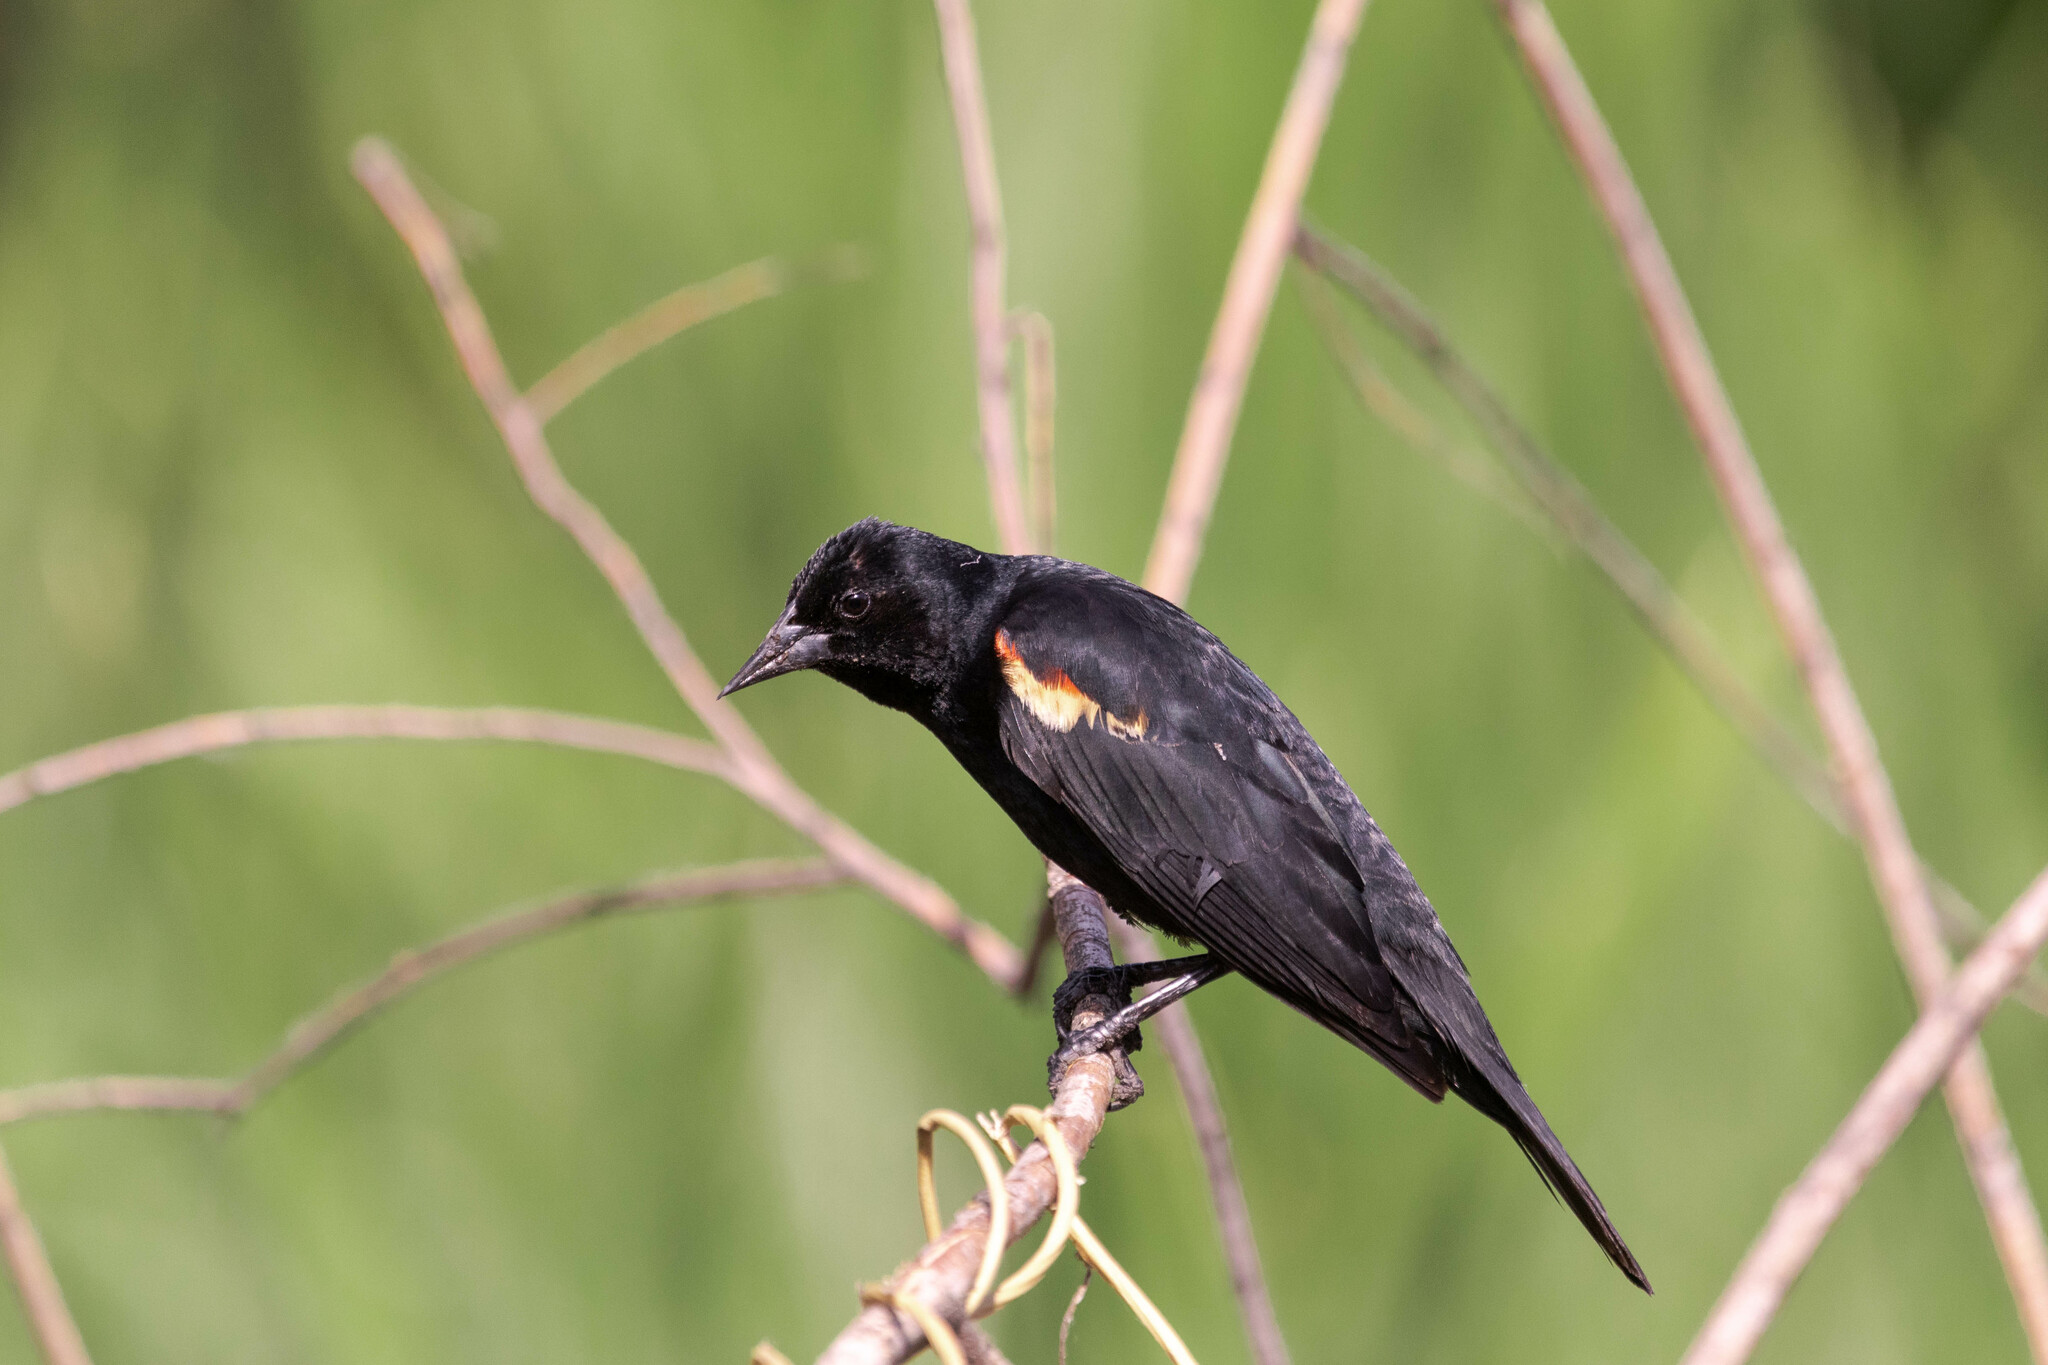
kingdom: Animalia
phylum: Chordata
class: Aves
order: Passeriformes
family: Icteridae
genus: Agelaius
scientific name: Agelaius phoeniceus
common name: Red-winged blackbird
